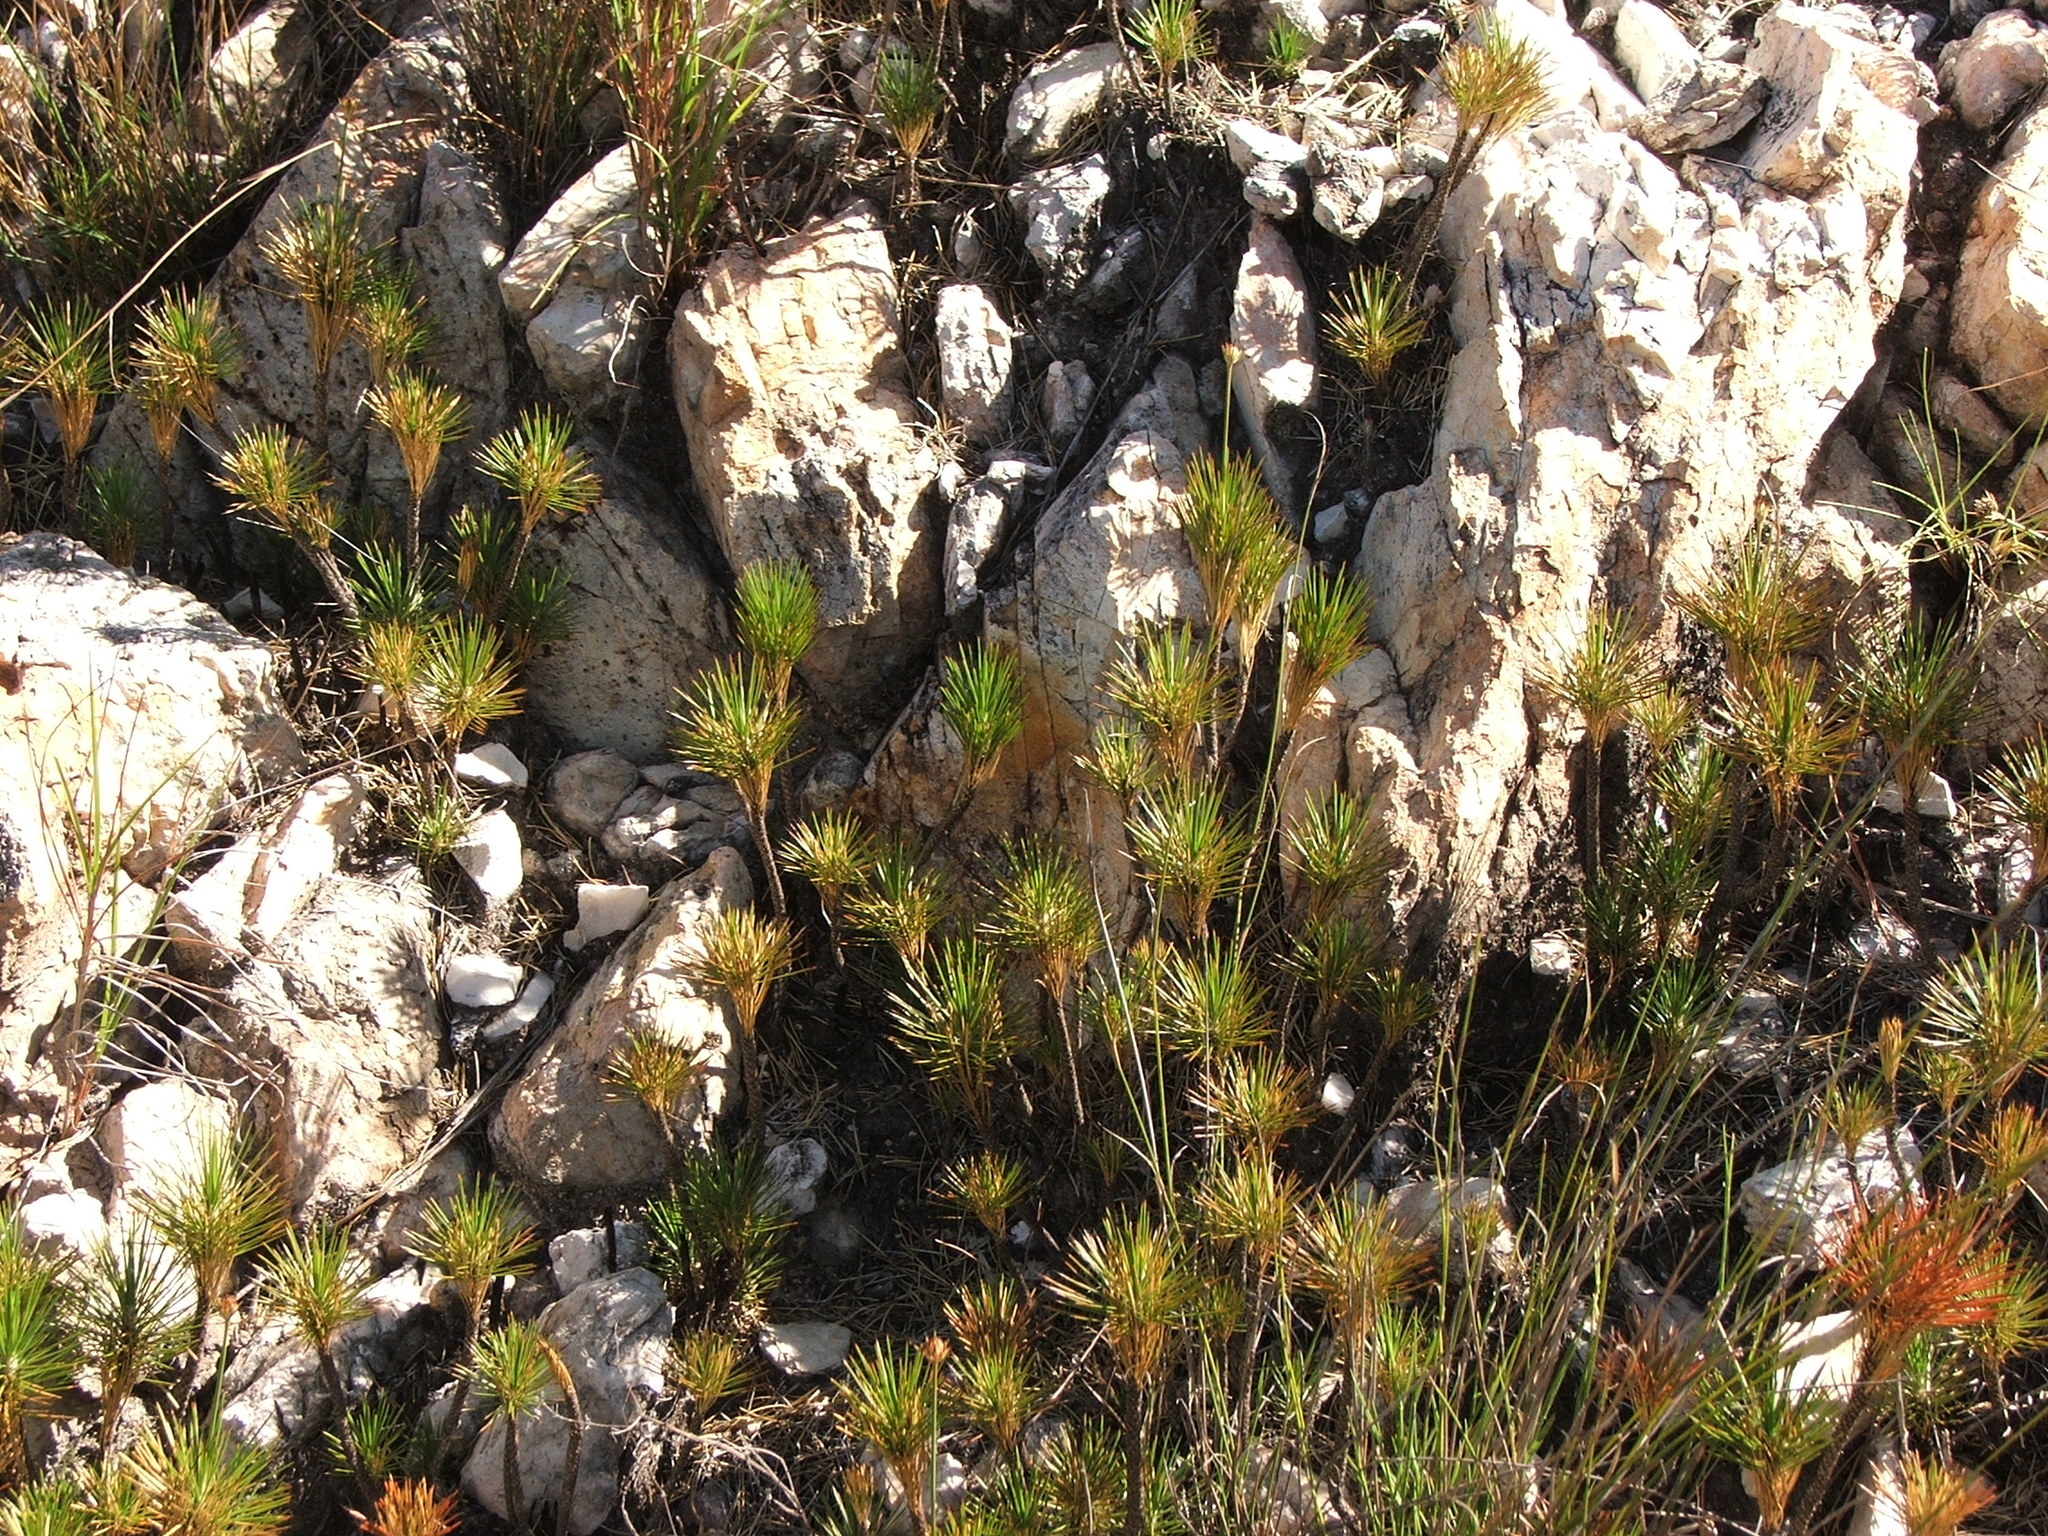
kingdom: Plantae
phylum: Tracheophyta
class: Liliopsida
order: Asparagales
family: Boryaceae
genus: Borya
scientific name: Borya septentrionalis
